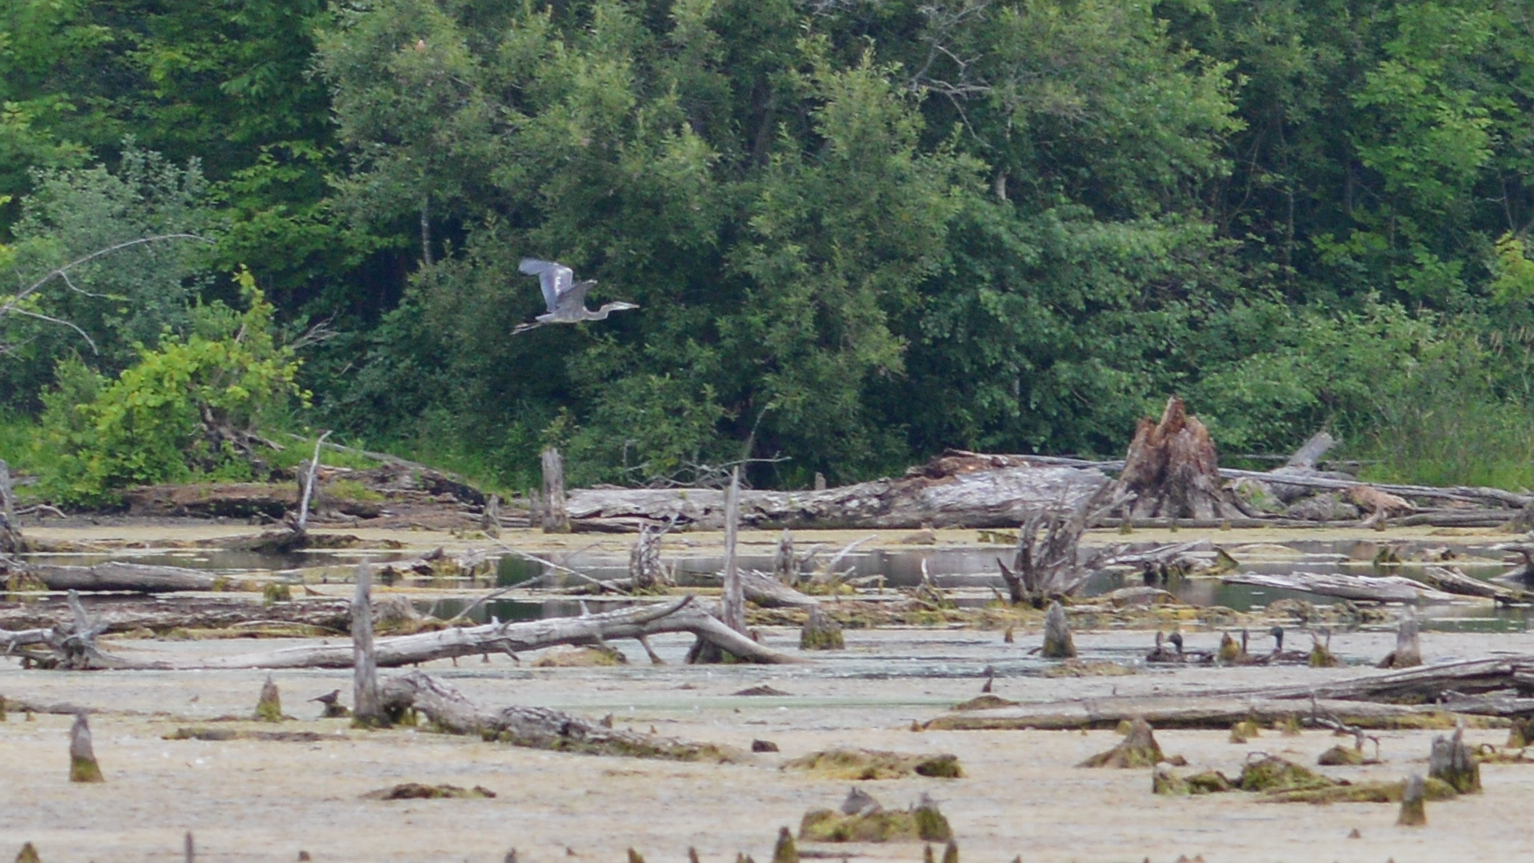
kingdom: Animalia
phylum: Chordata
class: Aves
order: Pelecaniformes
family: Ardeidae
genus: Ardea
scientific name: Ardea herodias
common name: Great blue heron
